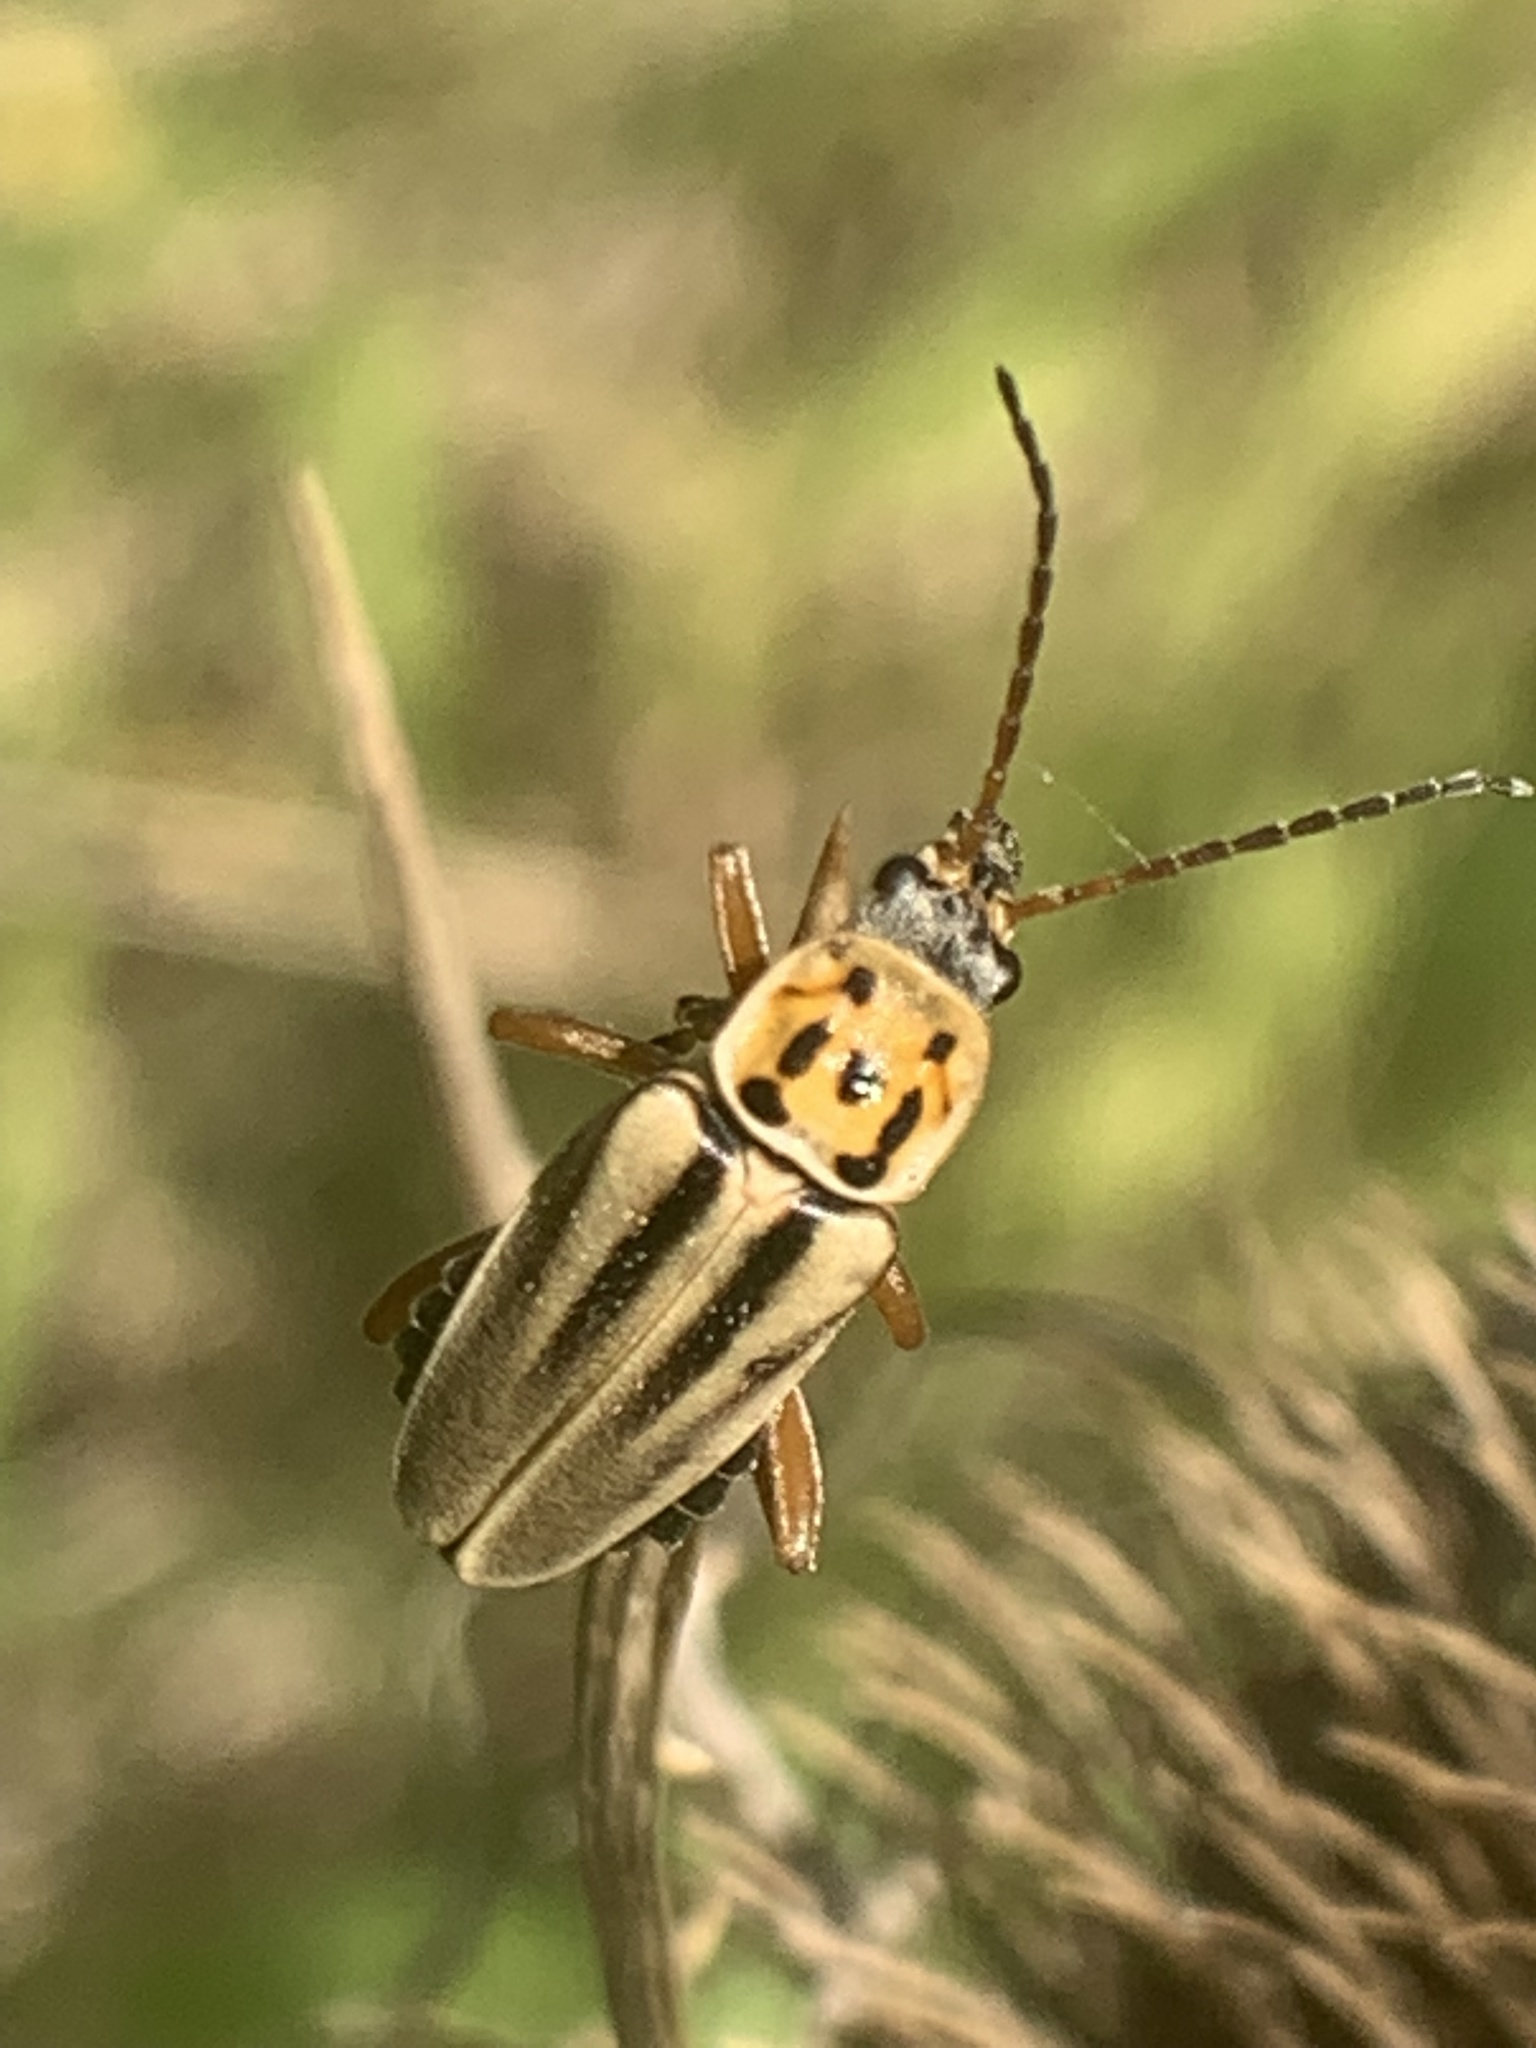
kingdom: Animalia
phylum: Arthropoda
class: Insecta
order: Coleoptera
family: Cantharidae
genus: Chauliognathus
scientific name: Chauliognathus
